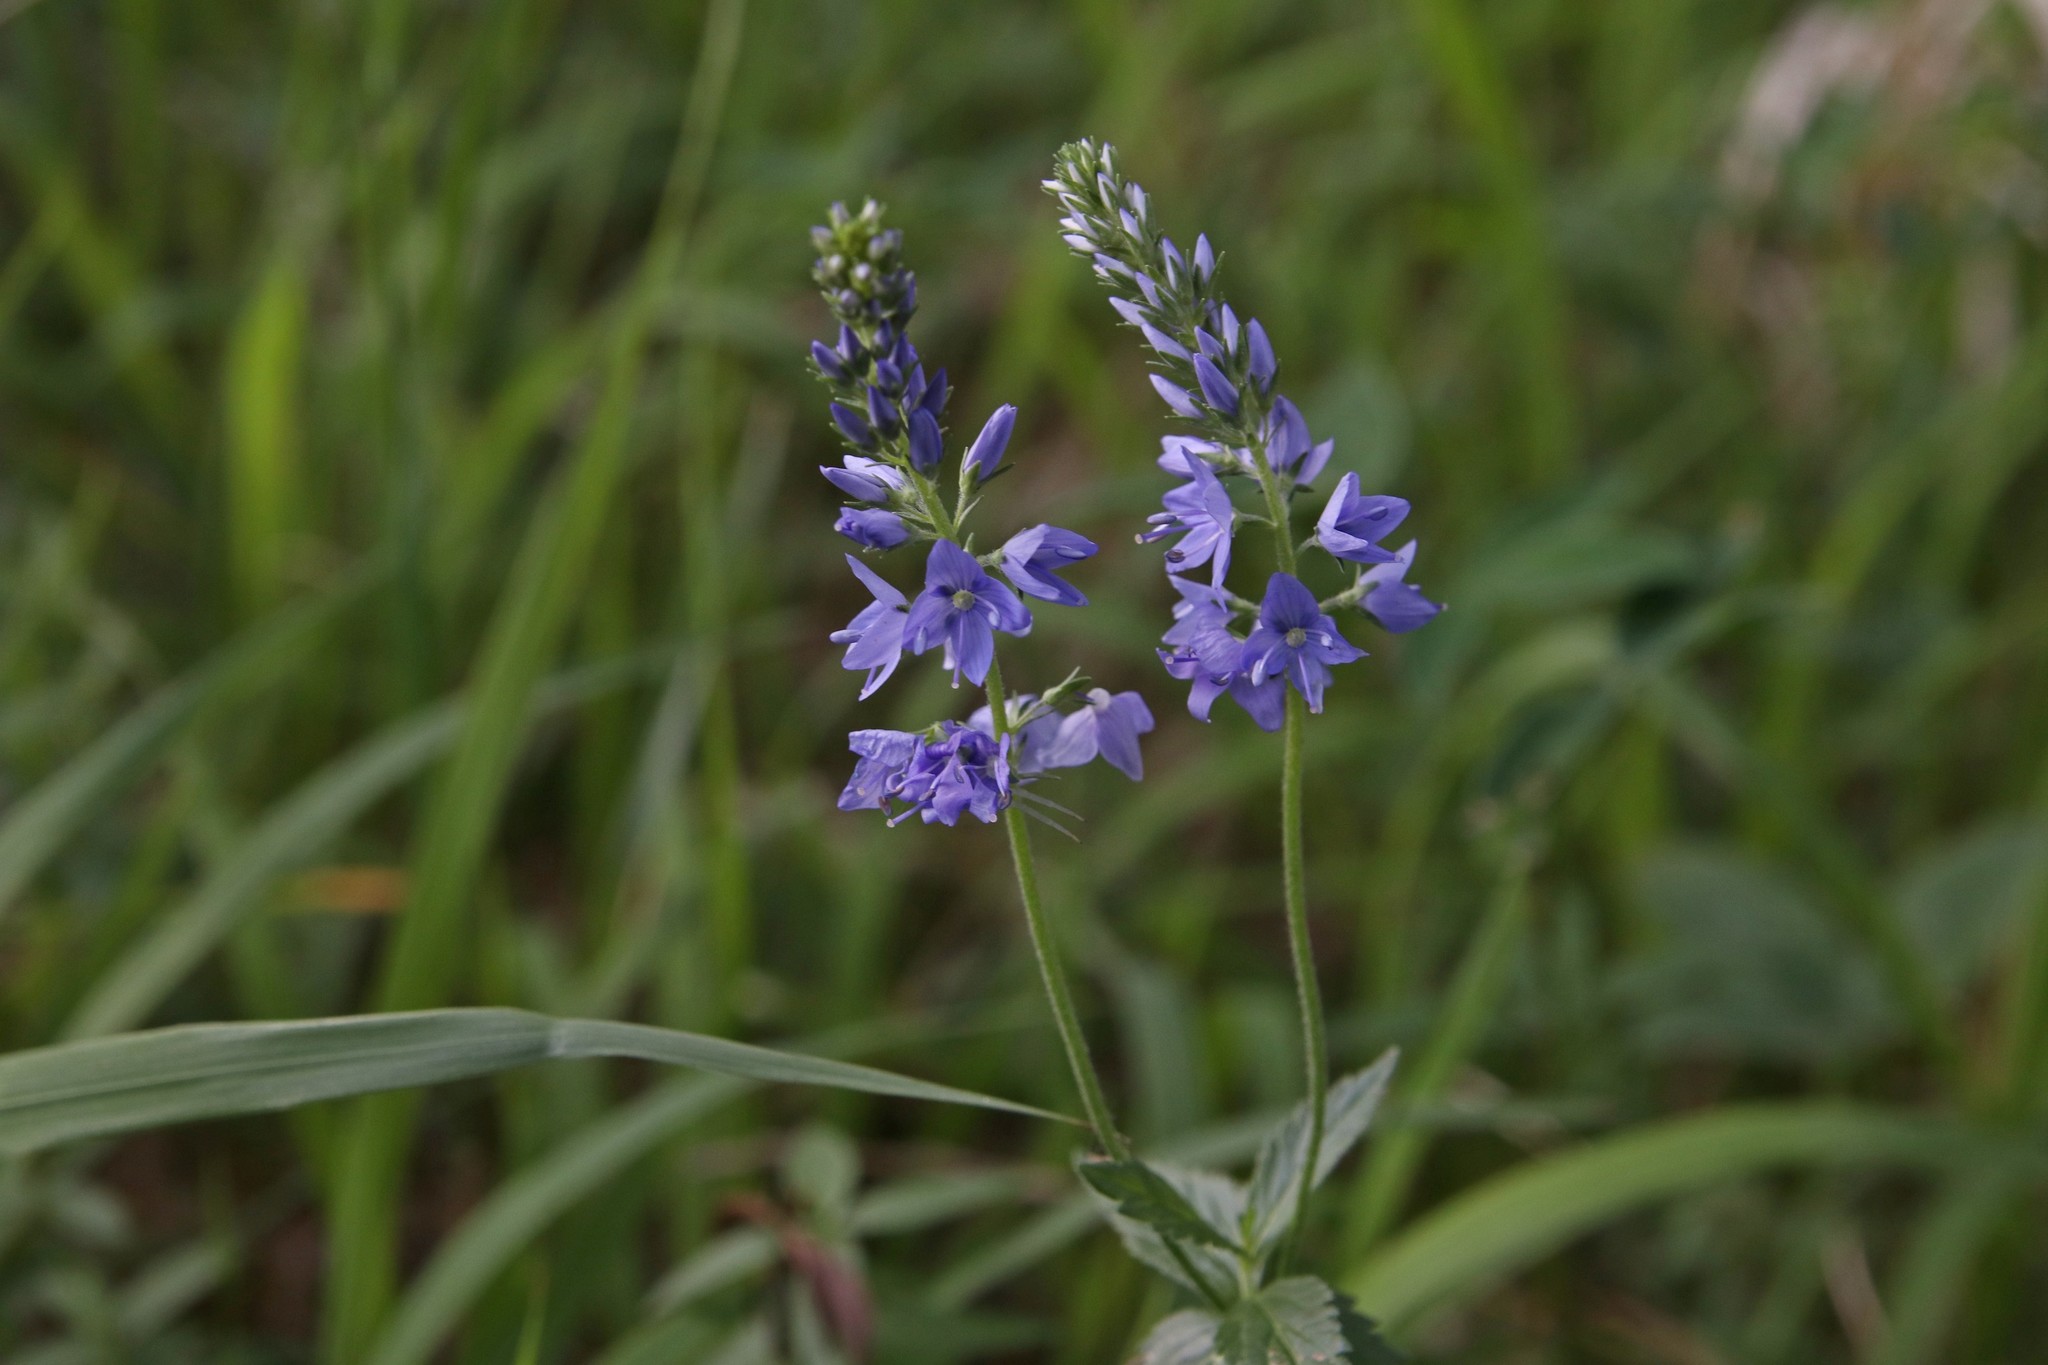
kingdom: Plantae
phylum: Tracheophyta
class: Magnoliopsida
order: Lamiales
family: Plantaginaceae
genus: Veronica
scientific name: Veronica teucrium
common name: Large speedwell
